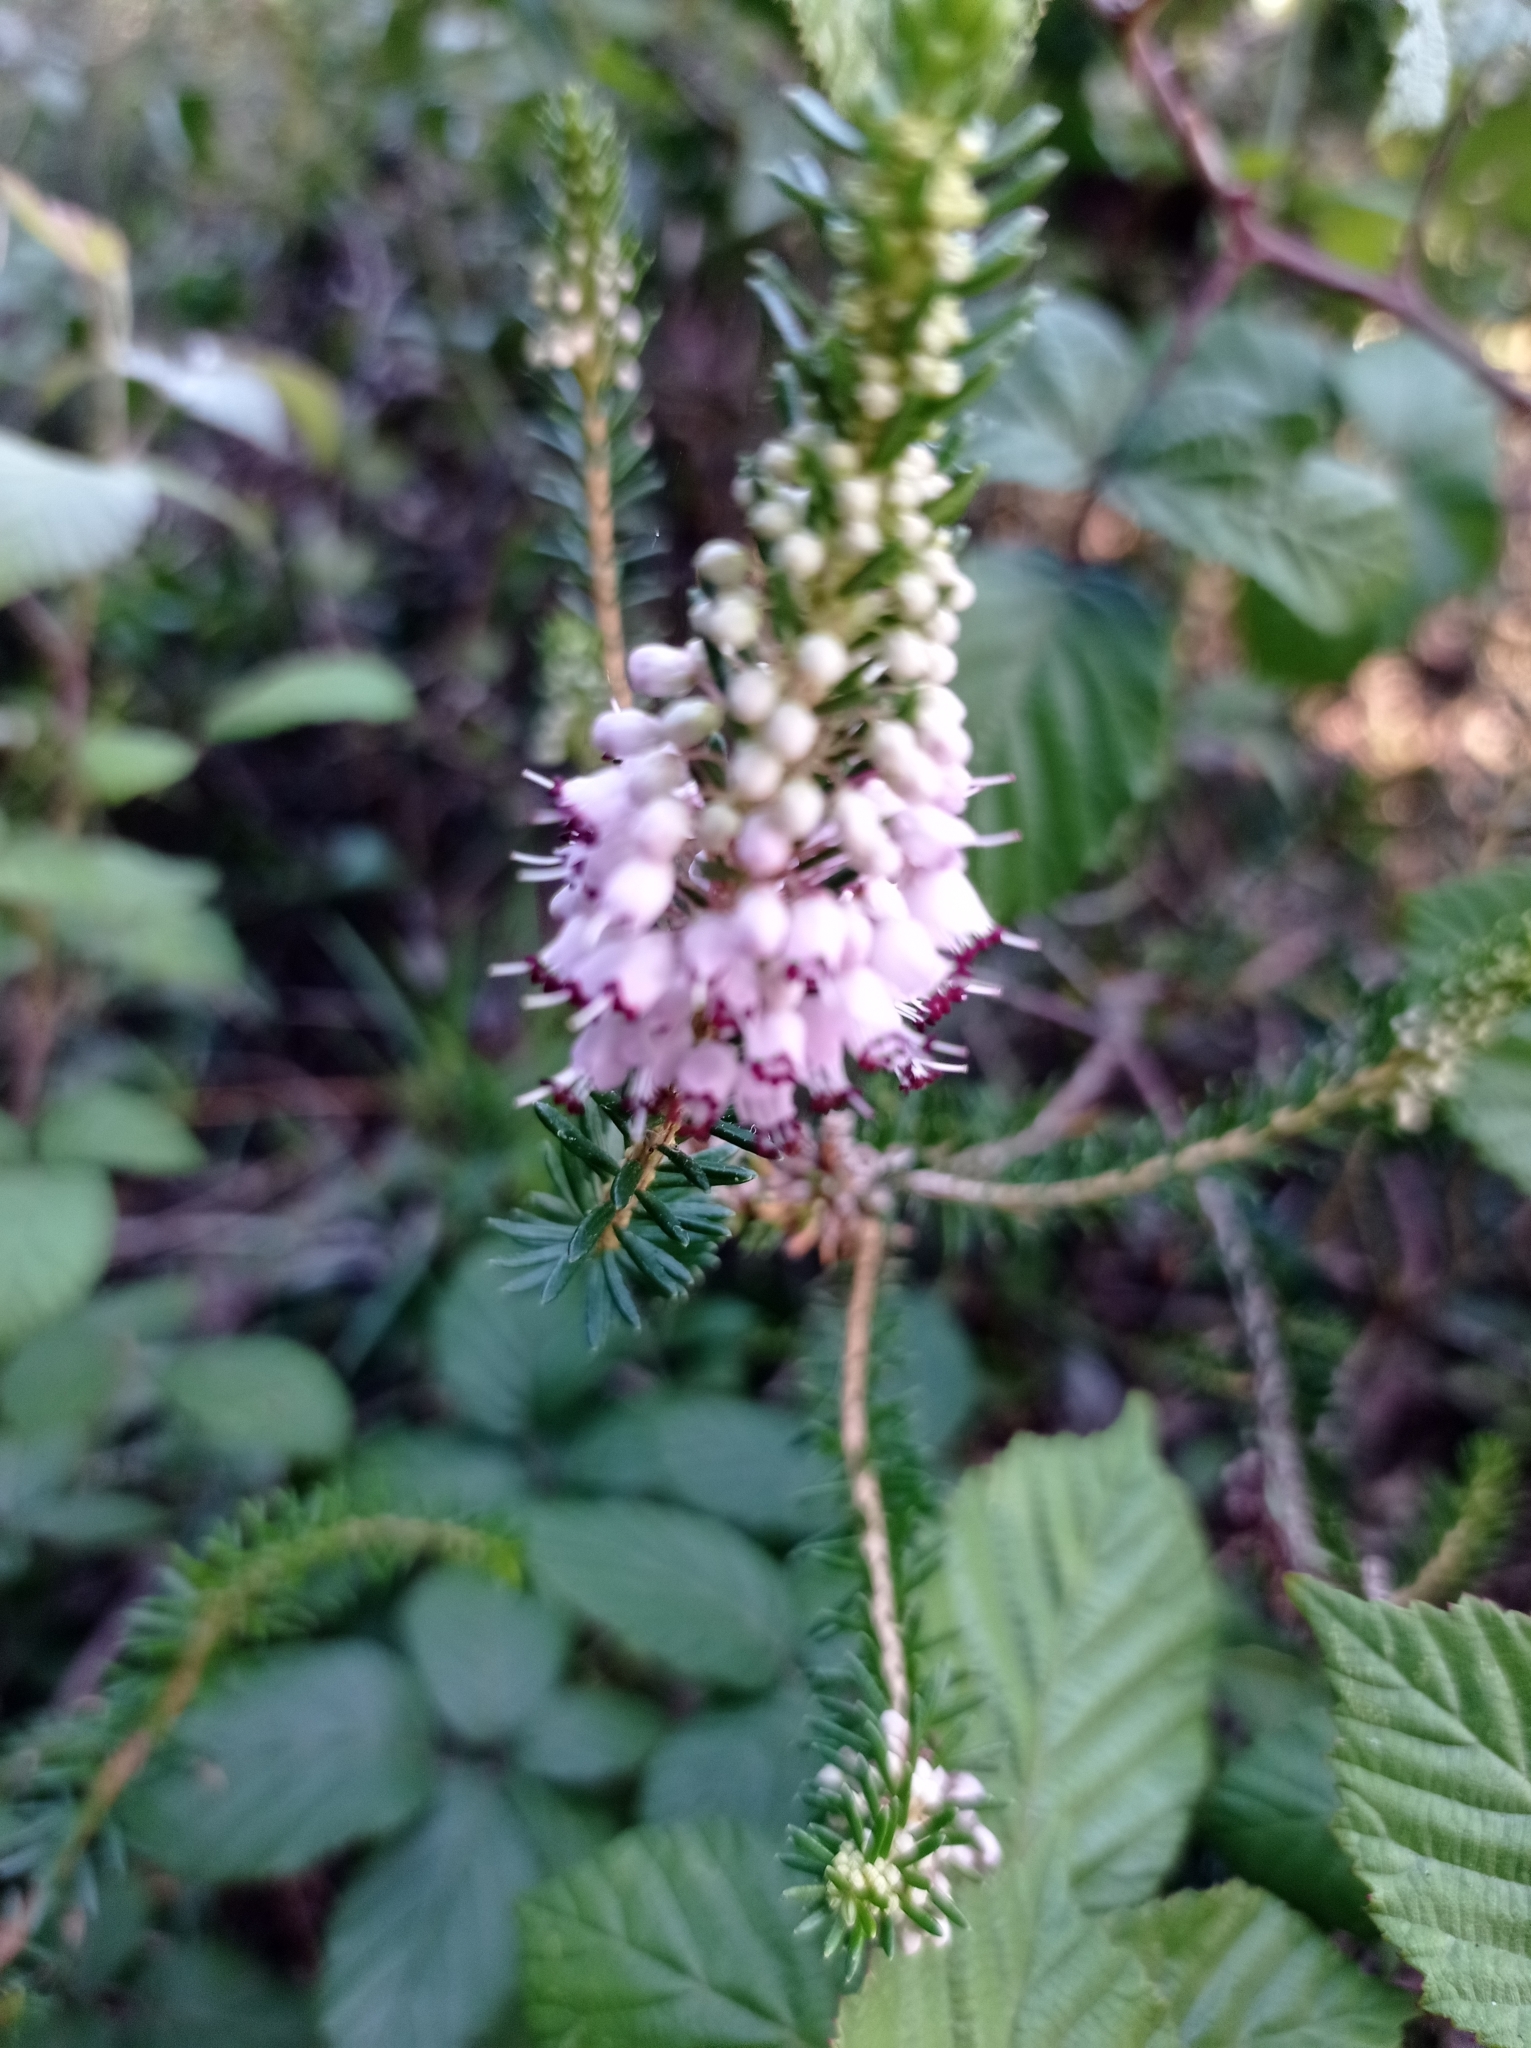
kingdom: Plantae
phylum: Tracheophyta
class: Magnoliopsida
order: Ericales
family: Ericaceae
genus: Erica
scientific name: Erica vagans
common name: Cornish heath
